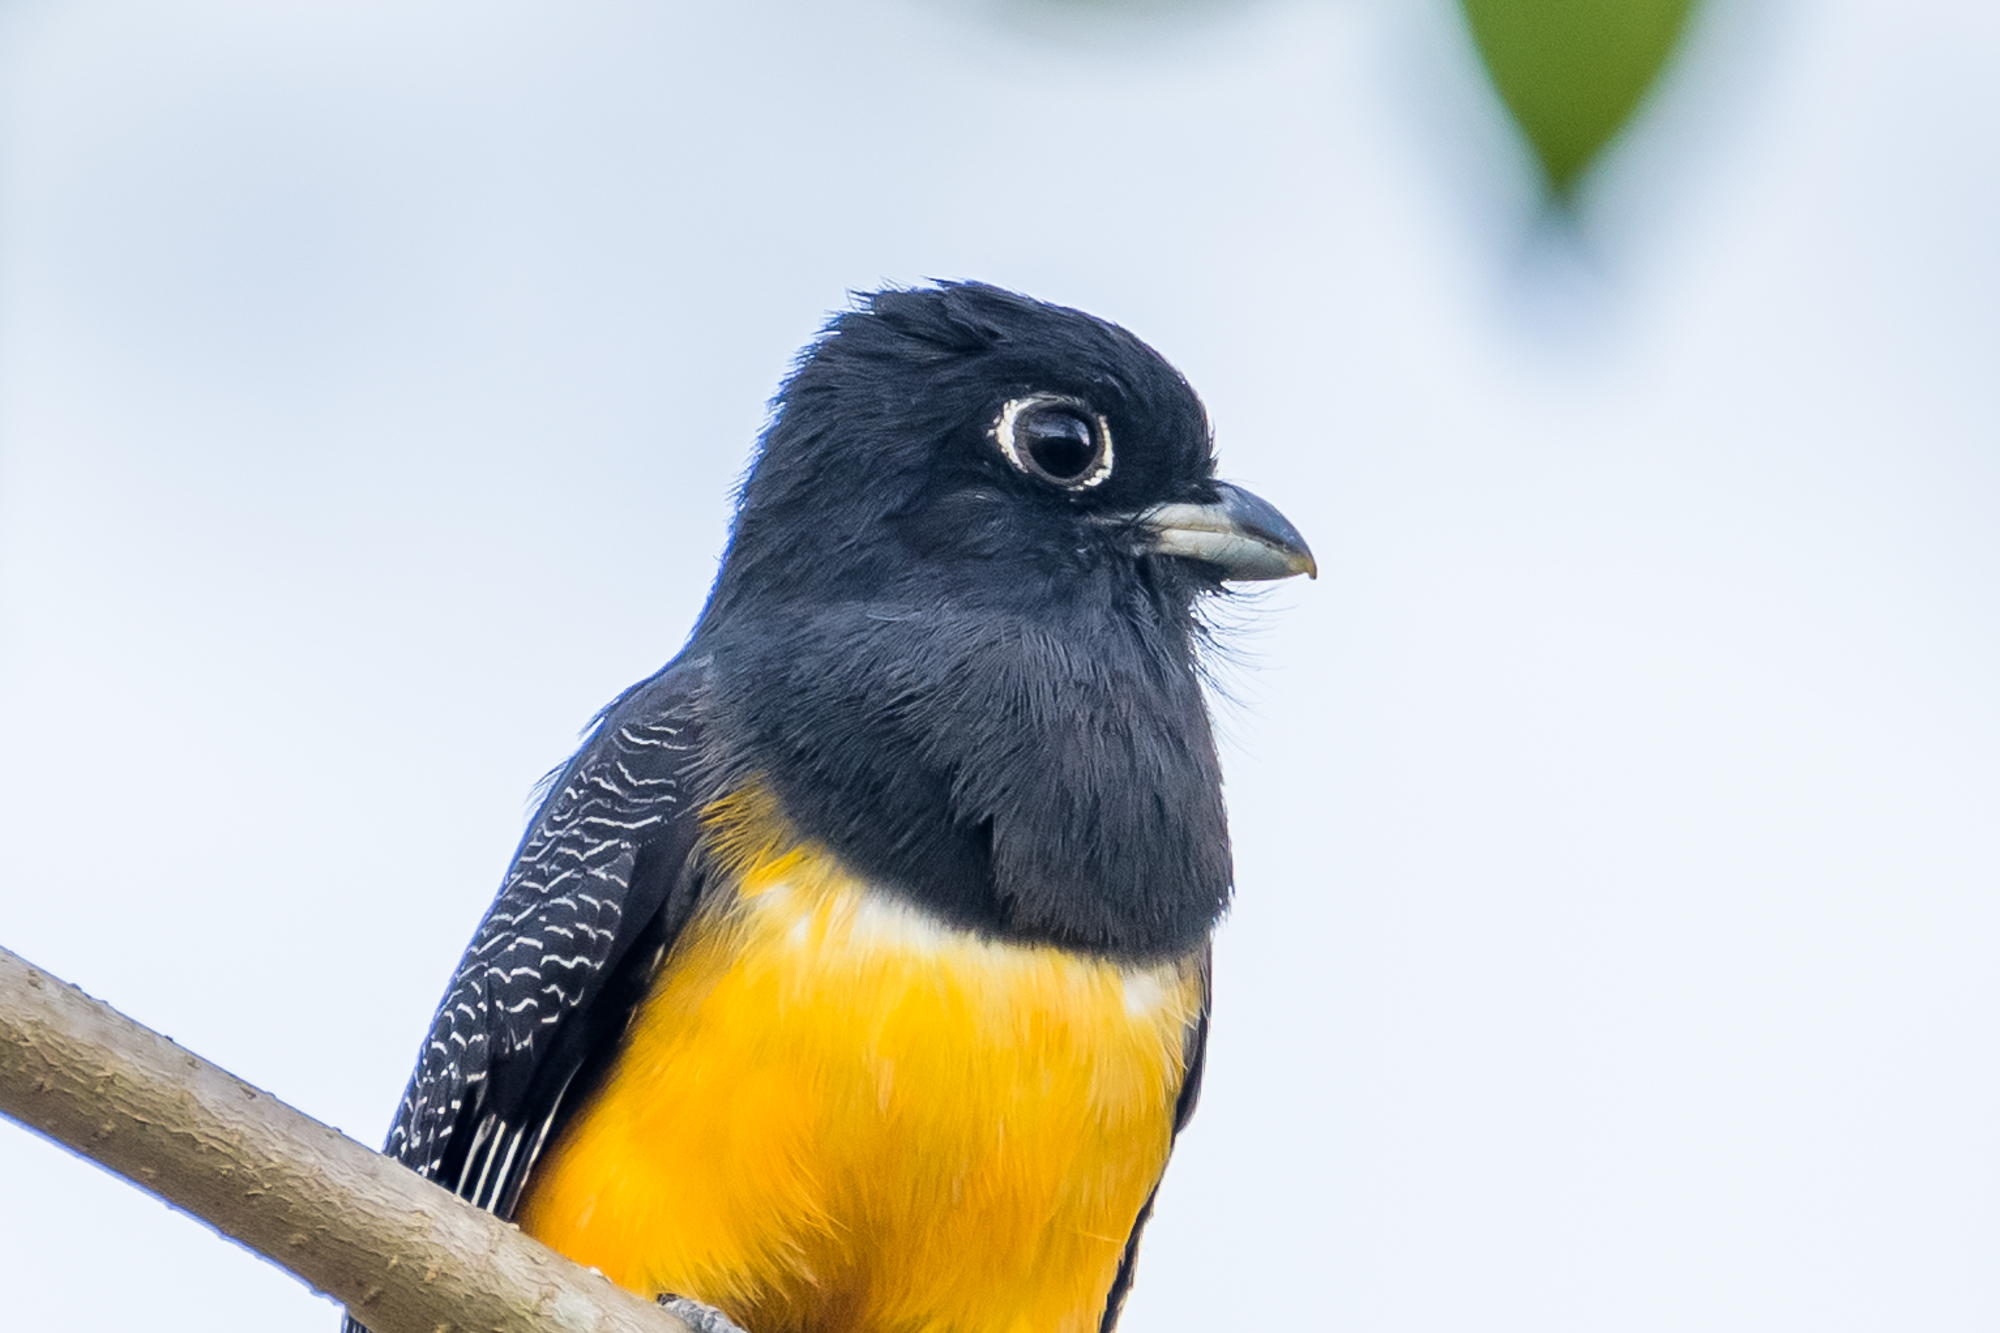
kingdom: Animalia
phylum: Chordata
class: Aves
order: Trogoniformes
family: Trogonidae
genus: Trogon
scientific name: Trogon caligatus
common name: Gartered trogon
